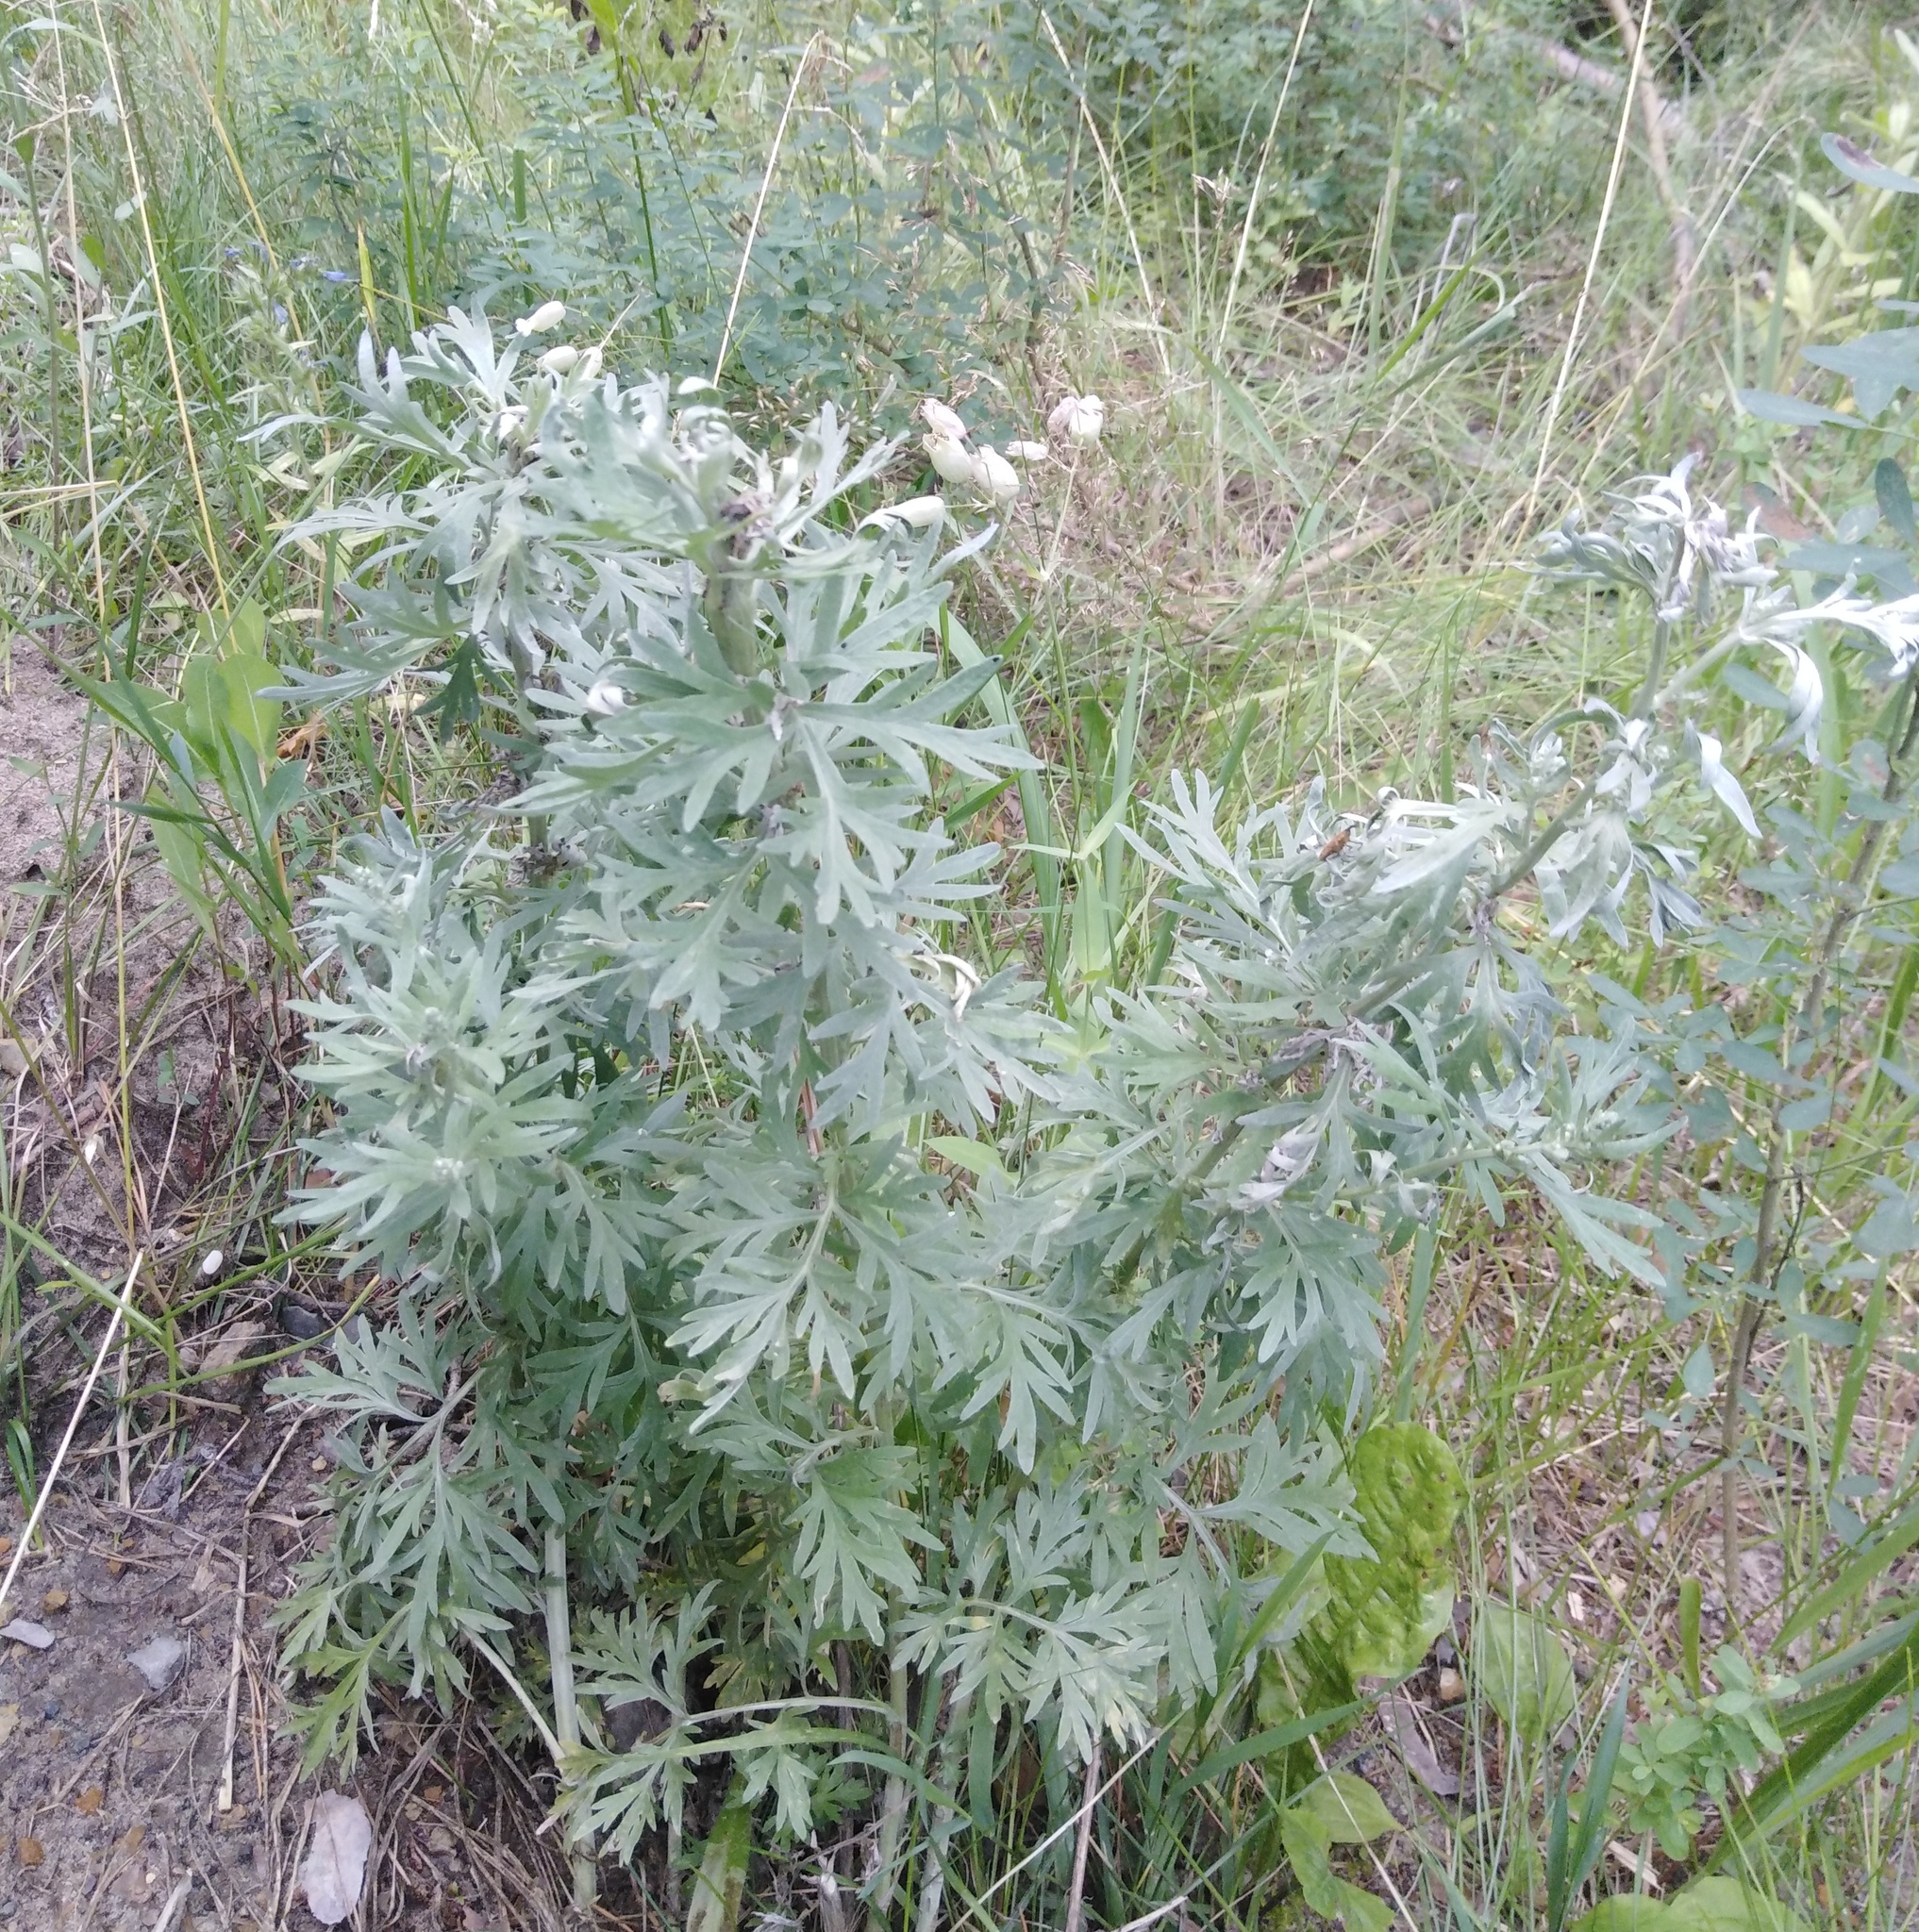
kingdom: Plantae
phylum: Tracheophyta
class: Magnoliopsida
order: Asterales
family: Asteraceae
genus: Artemisia
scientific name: Artemisia absinthium
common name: Wormwood
